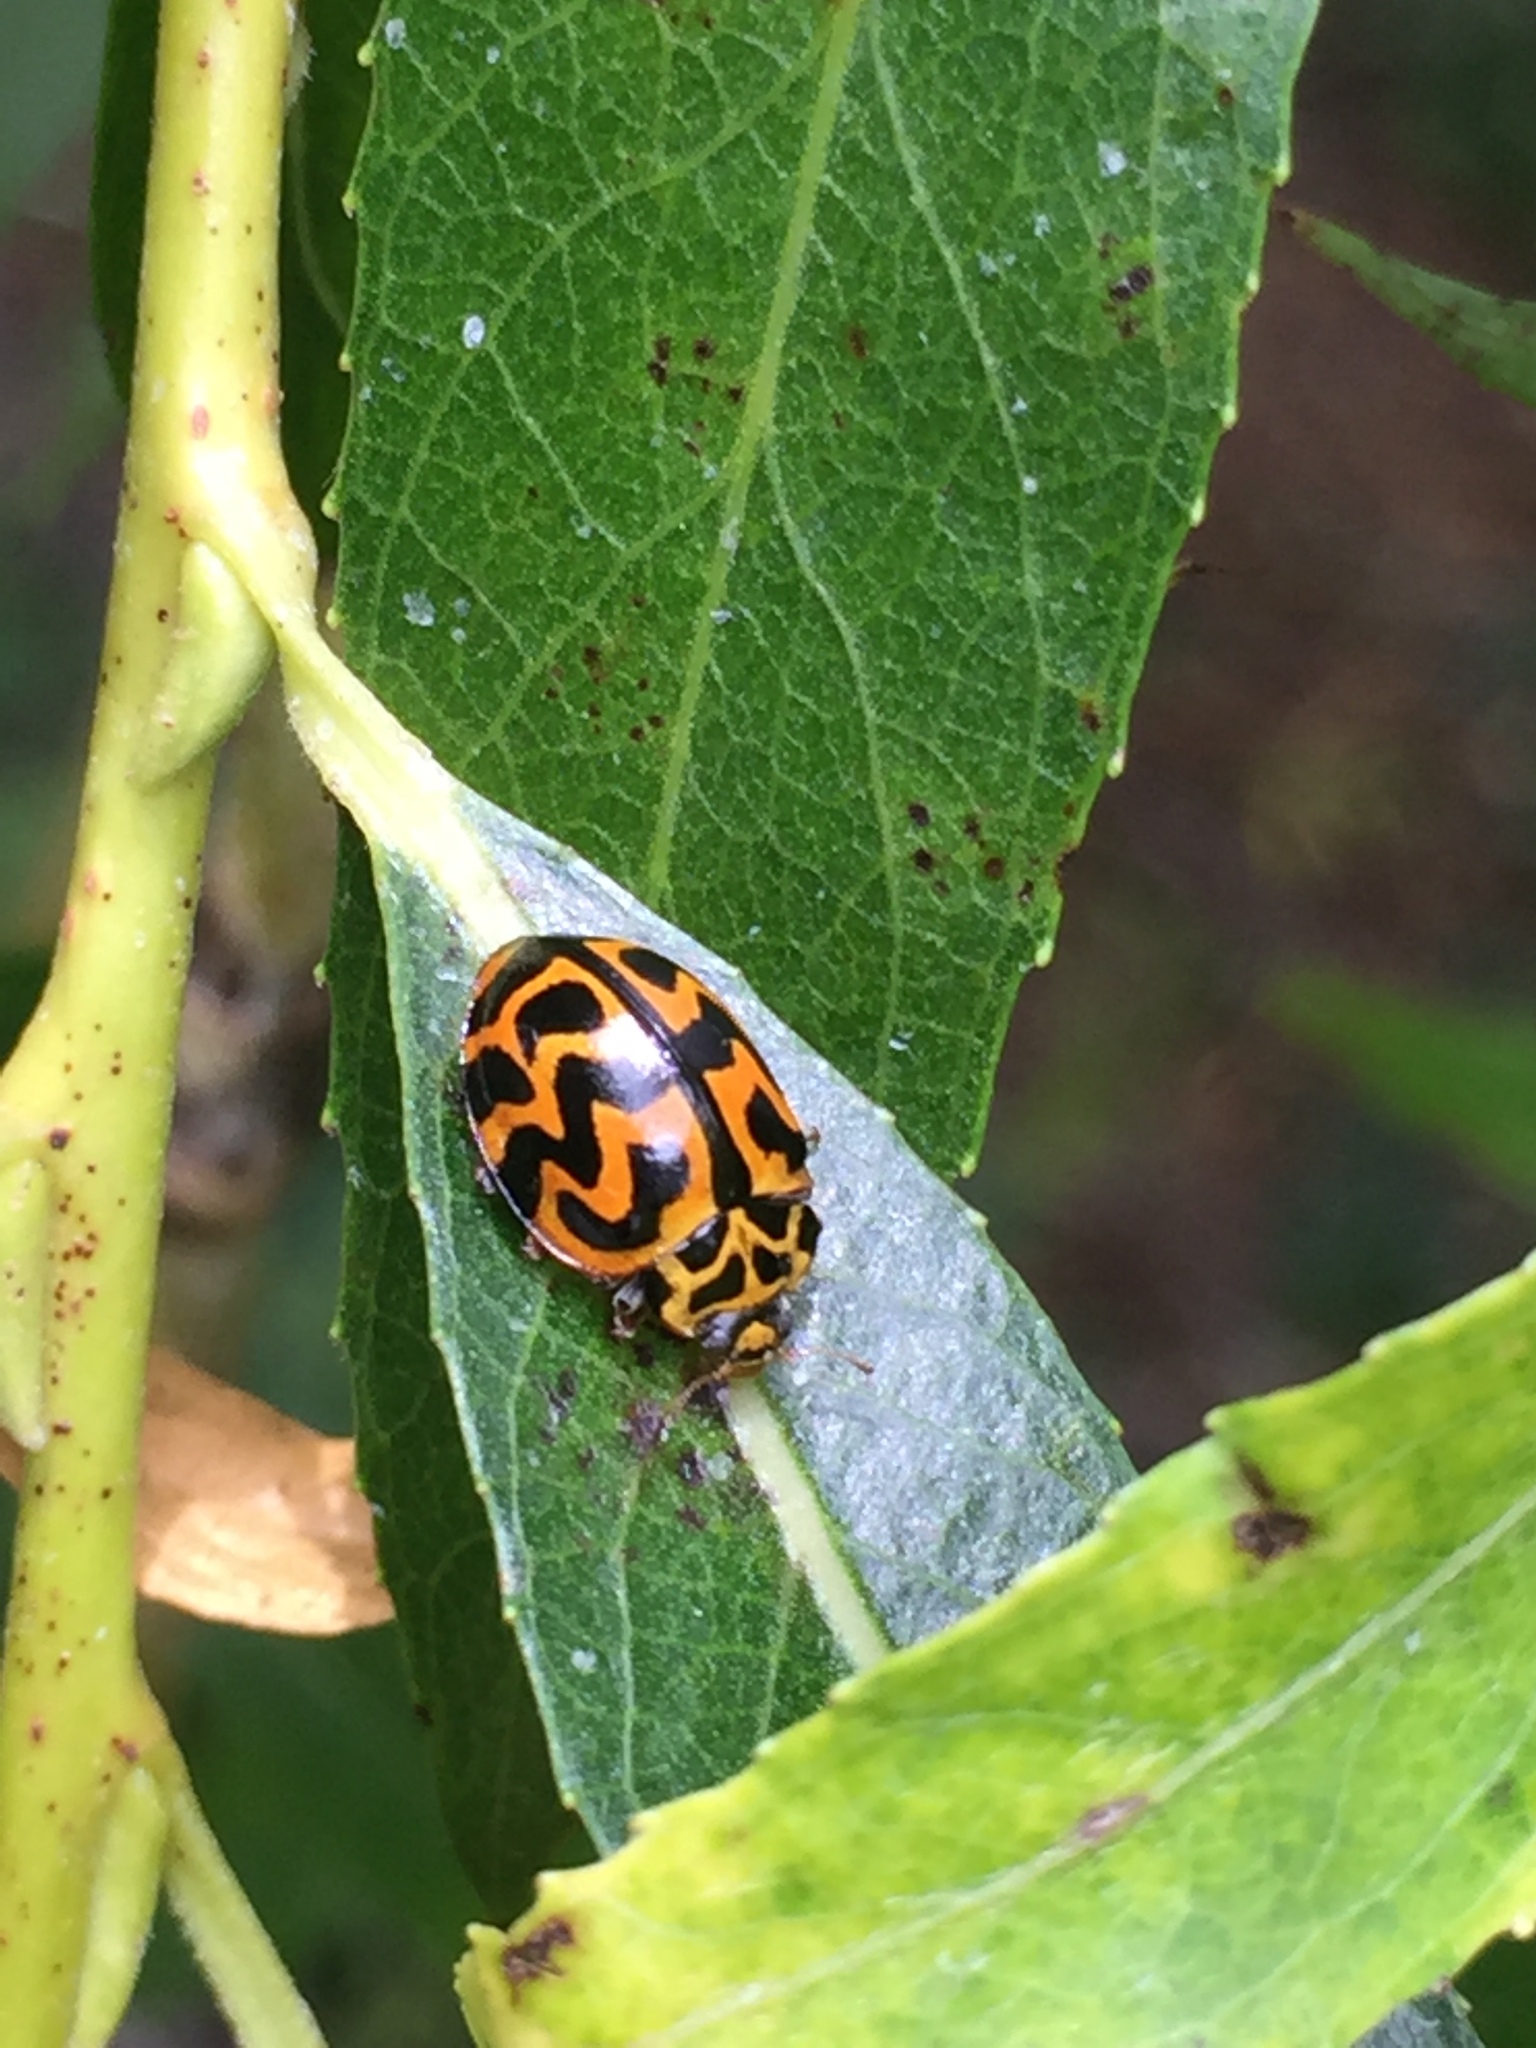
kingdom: Animalia
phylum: Arthropoda
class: Insecta
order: Coleoptera
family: Coccinellidae
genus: Cleobora
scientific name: Cleobora
